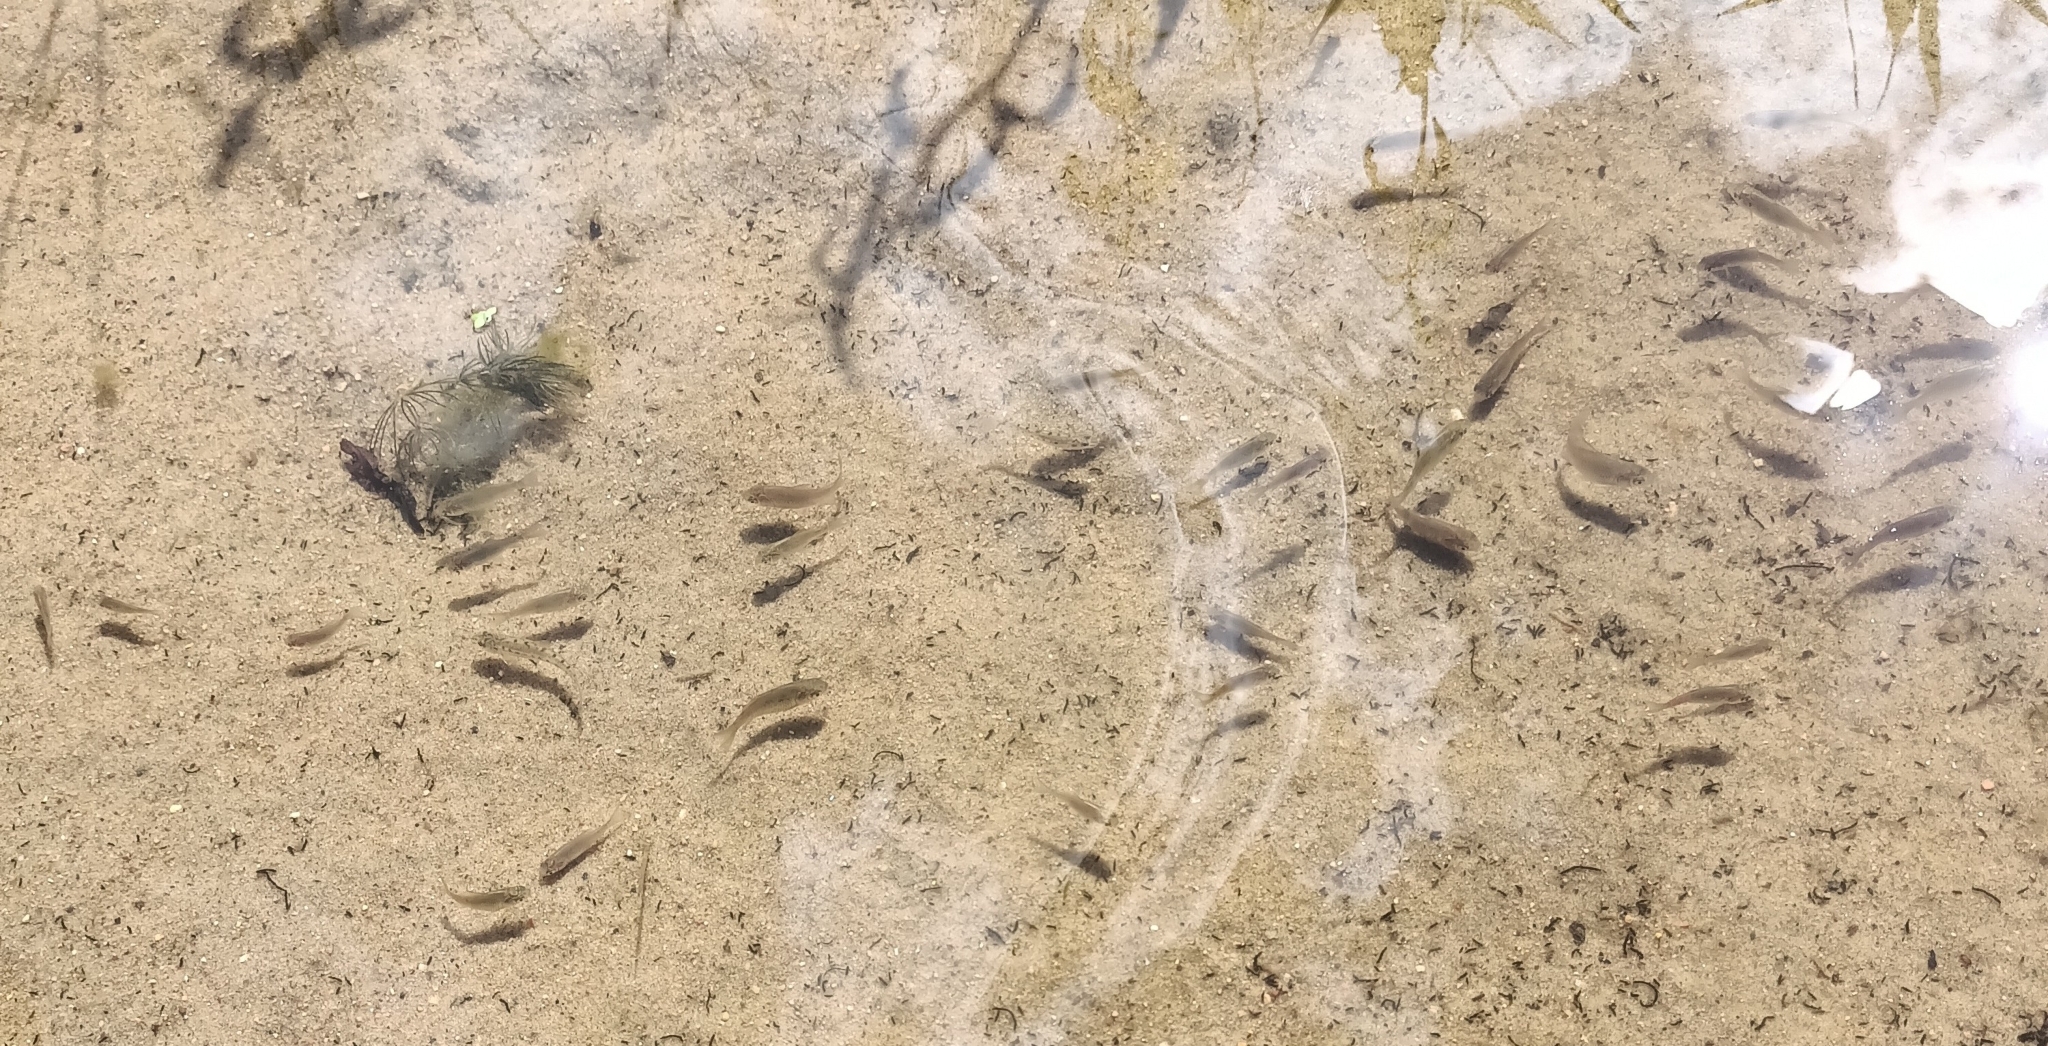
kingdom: Animalia
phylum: Chordata
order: Cypriniformes
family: Cyprinidae
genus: Carassius
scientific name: Carassius gibelio
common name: Prussian carp
